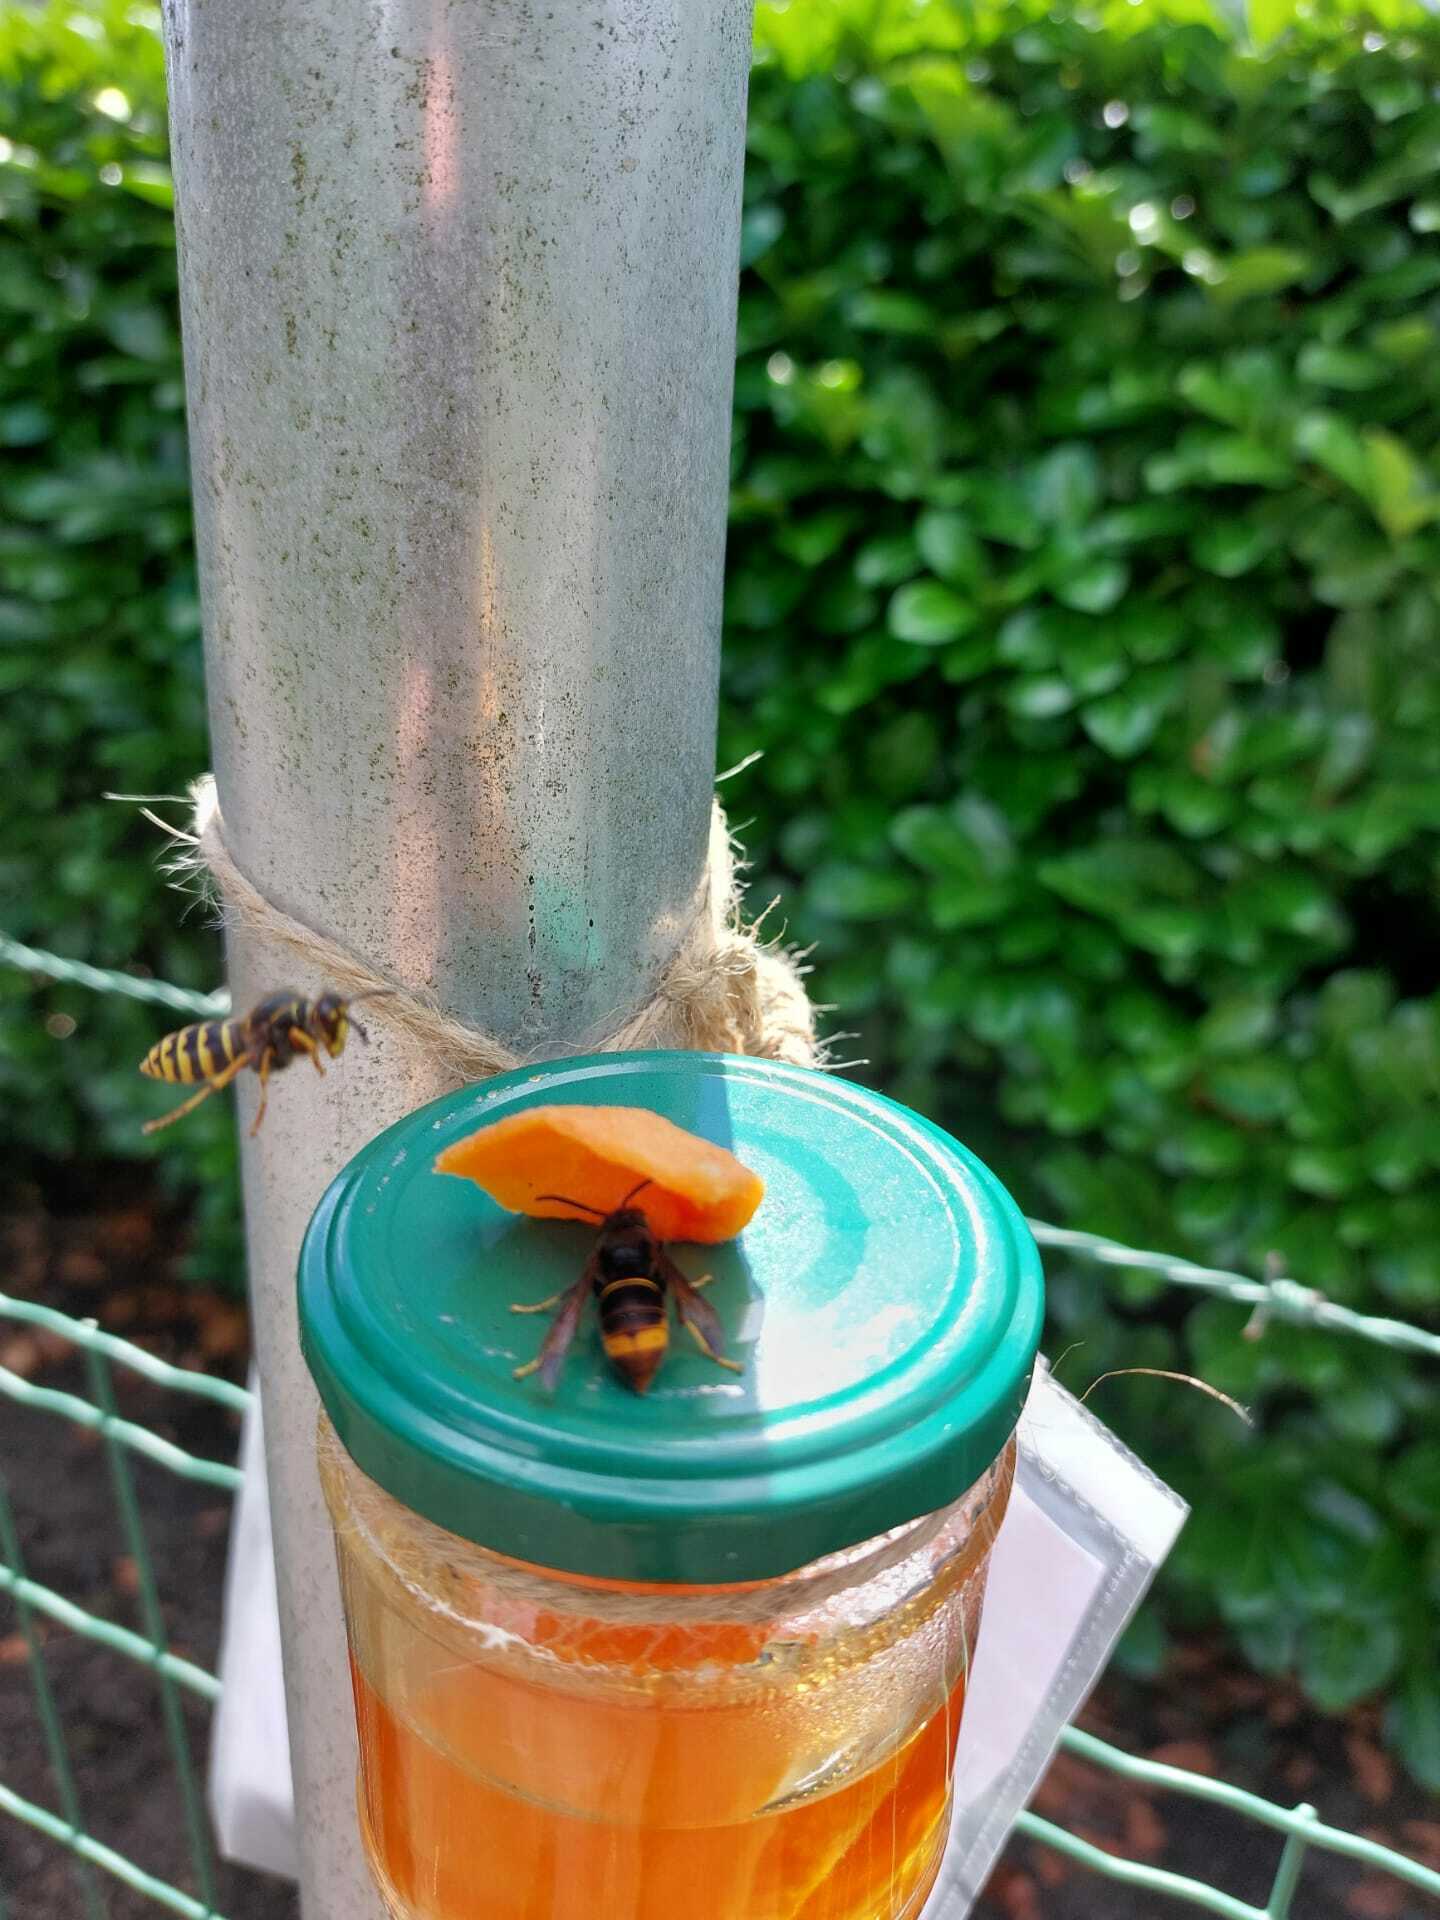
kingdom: Animalia
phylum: Arthropoda
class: Insecta
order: Hymenoptera
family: Vespidae
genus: Vespa
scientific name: Vespa velutina
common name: Asian hornet
